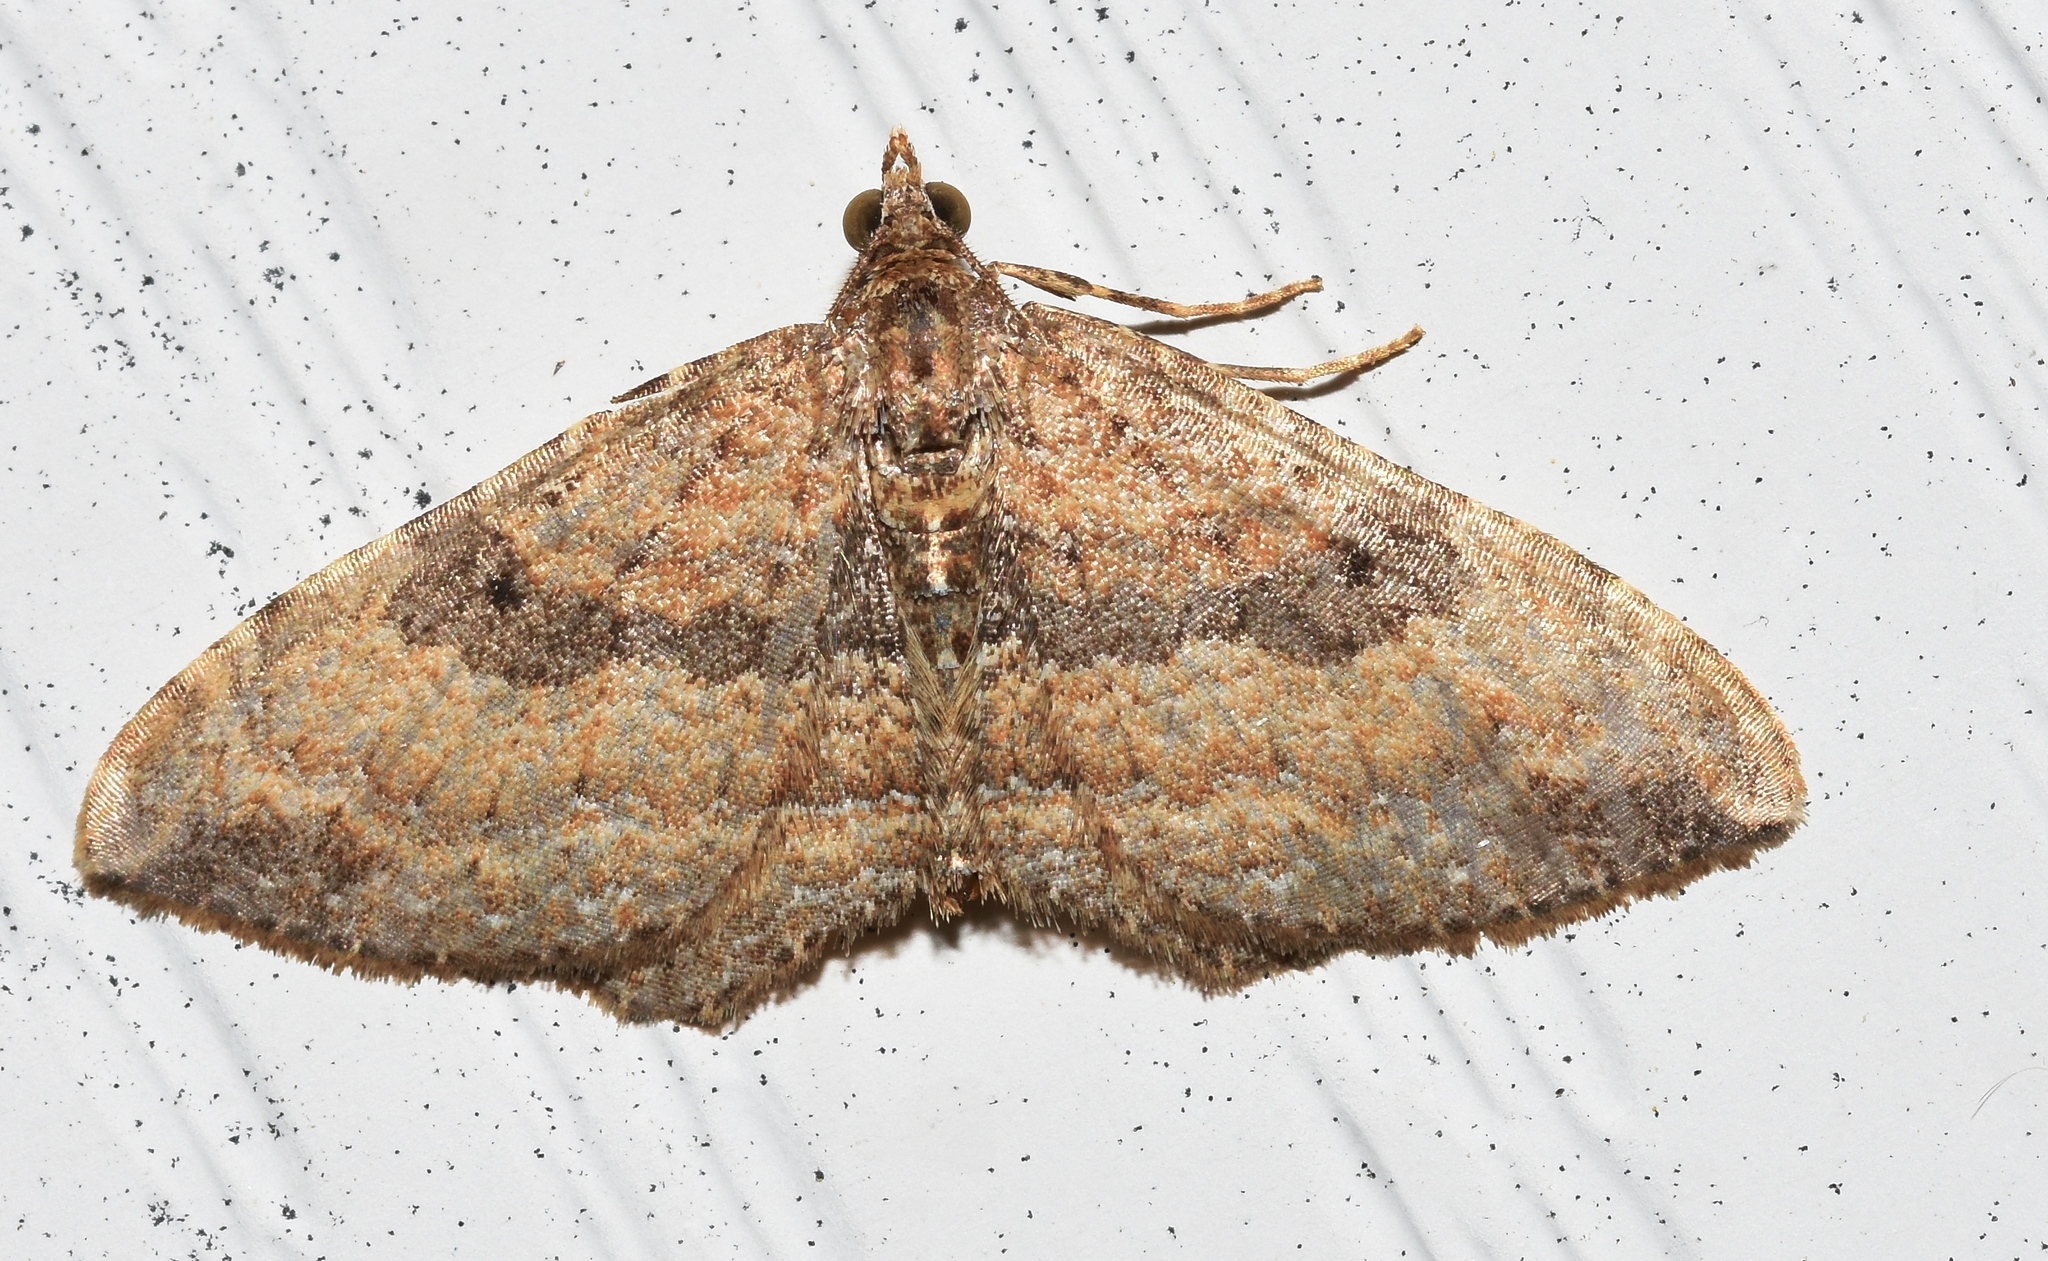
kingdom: Animalia
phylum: Arthropoda
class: Insecta
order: Lepidoptera
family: Geometridae
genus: Orthonama
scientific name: Orthonama obstipata
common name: The gem
